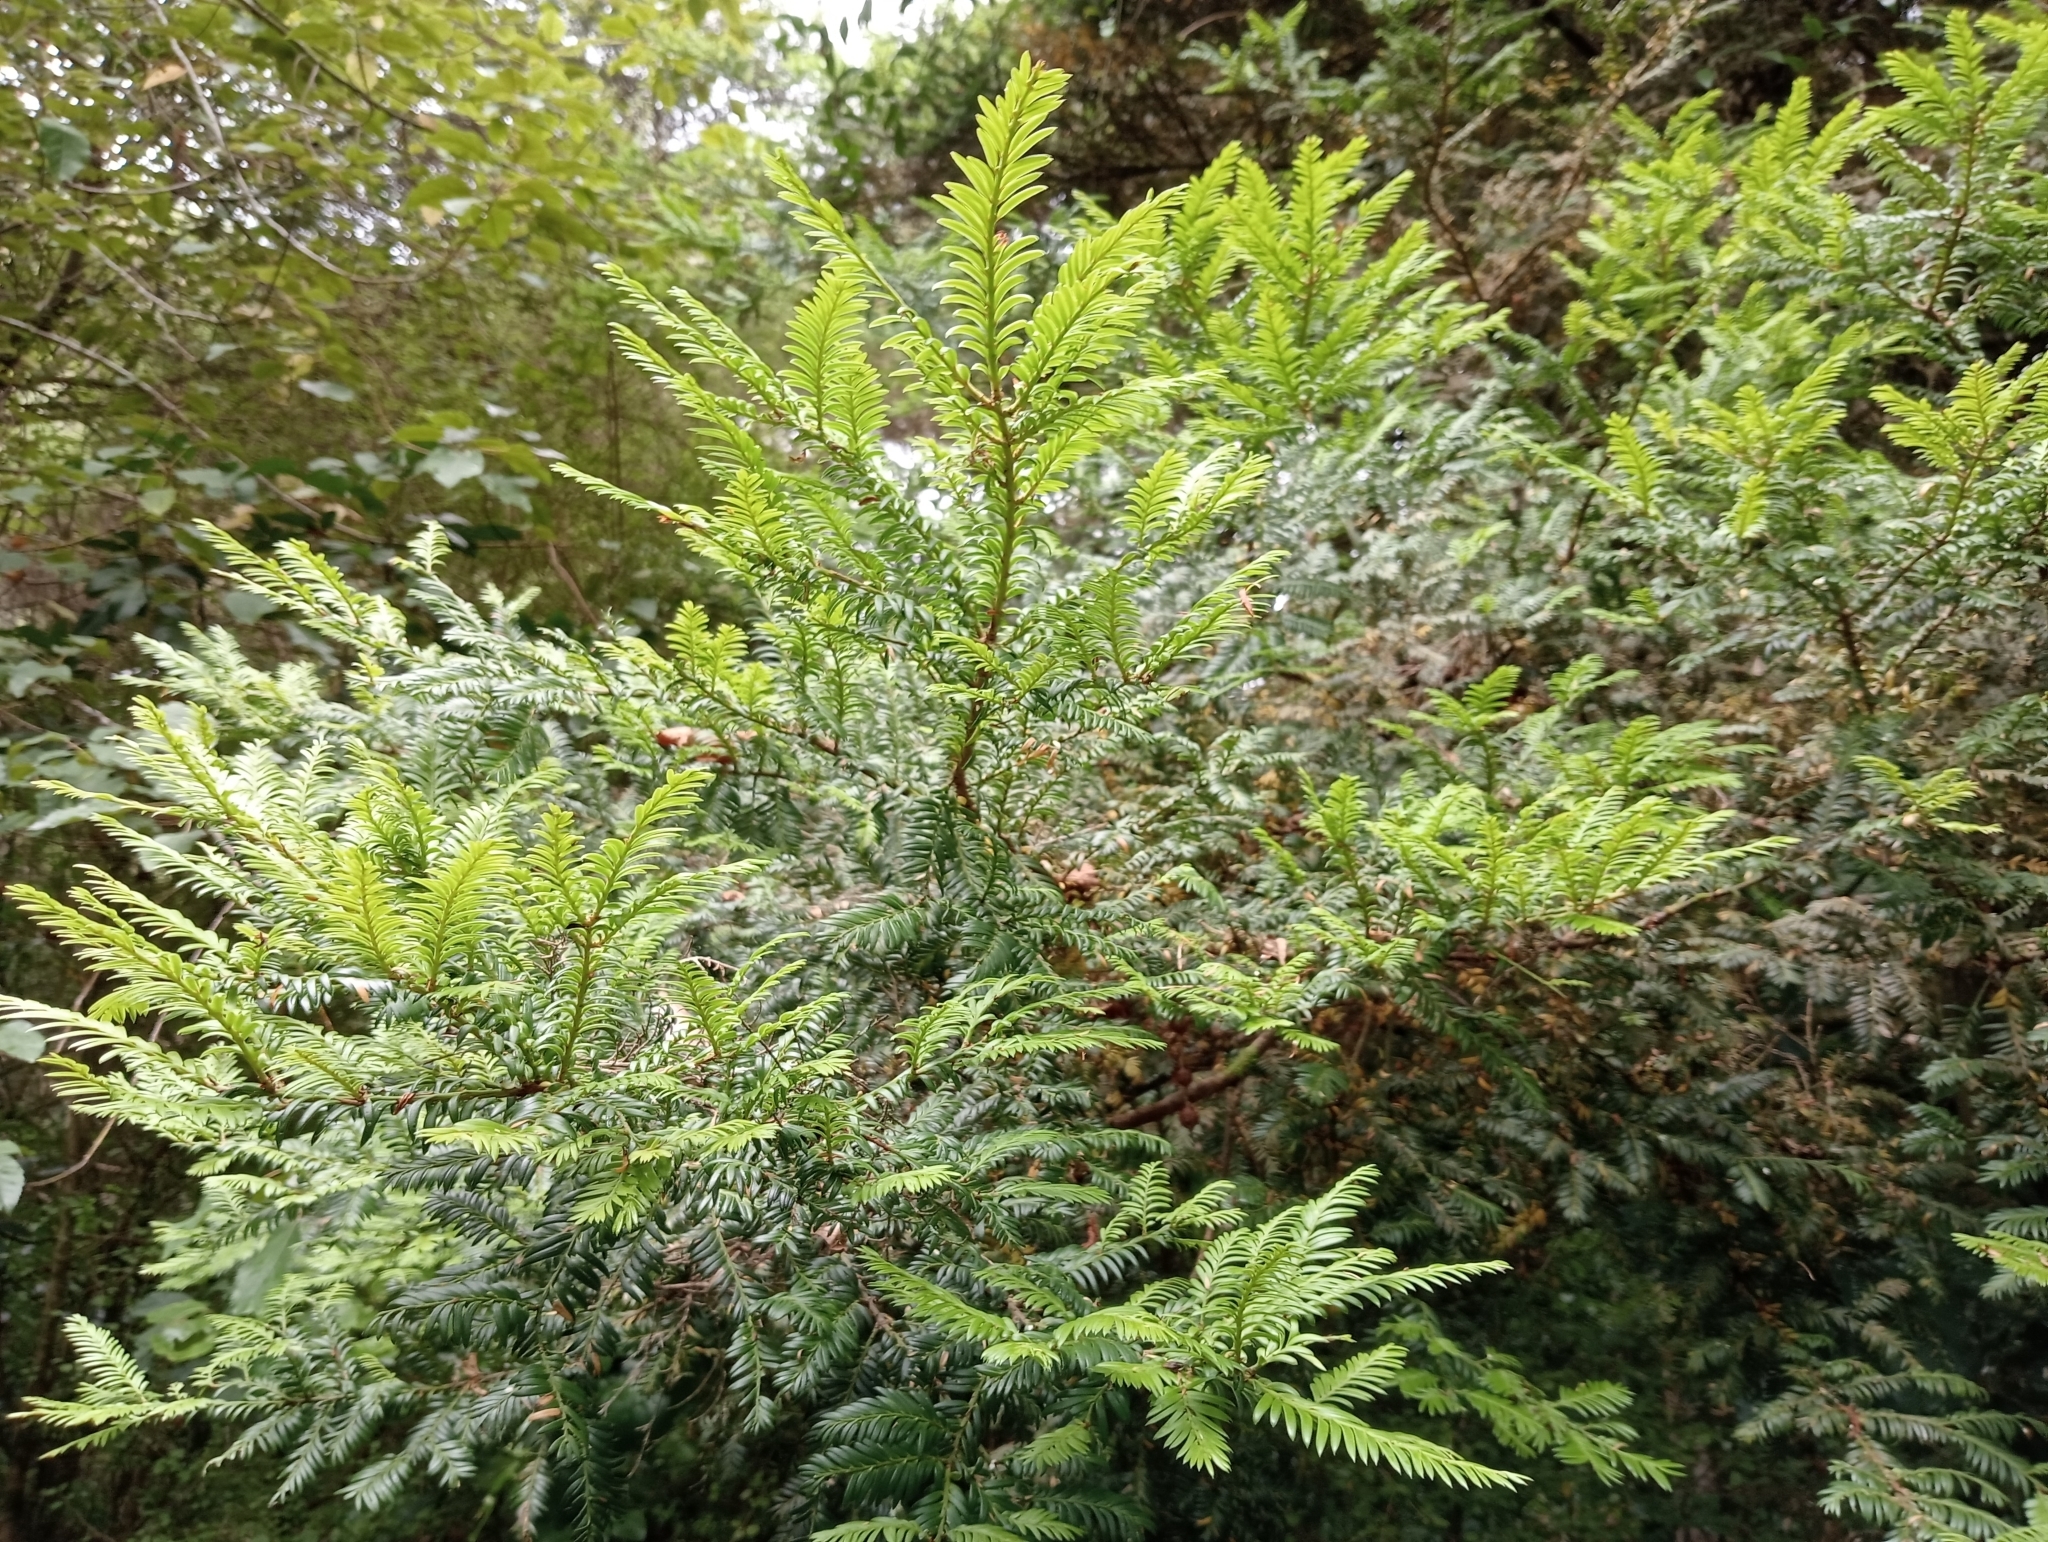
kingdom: Plantae
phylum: Tracheophyta
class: Pinopsida
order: Pinales
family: Podocarpaceae
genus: Prumnopitys
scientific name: Prumnopitys ferruginea
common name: Brown pine
